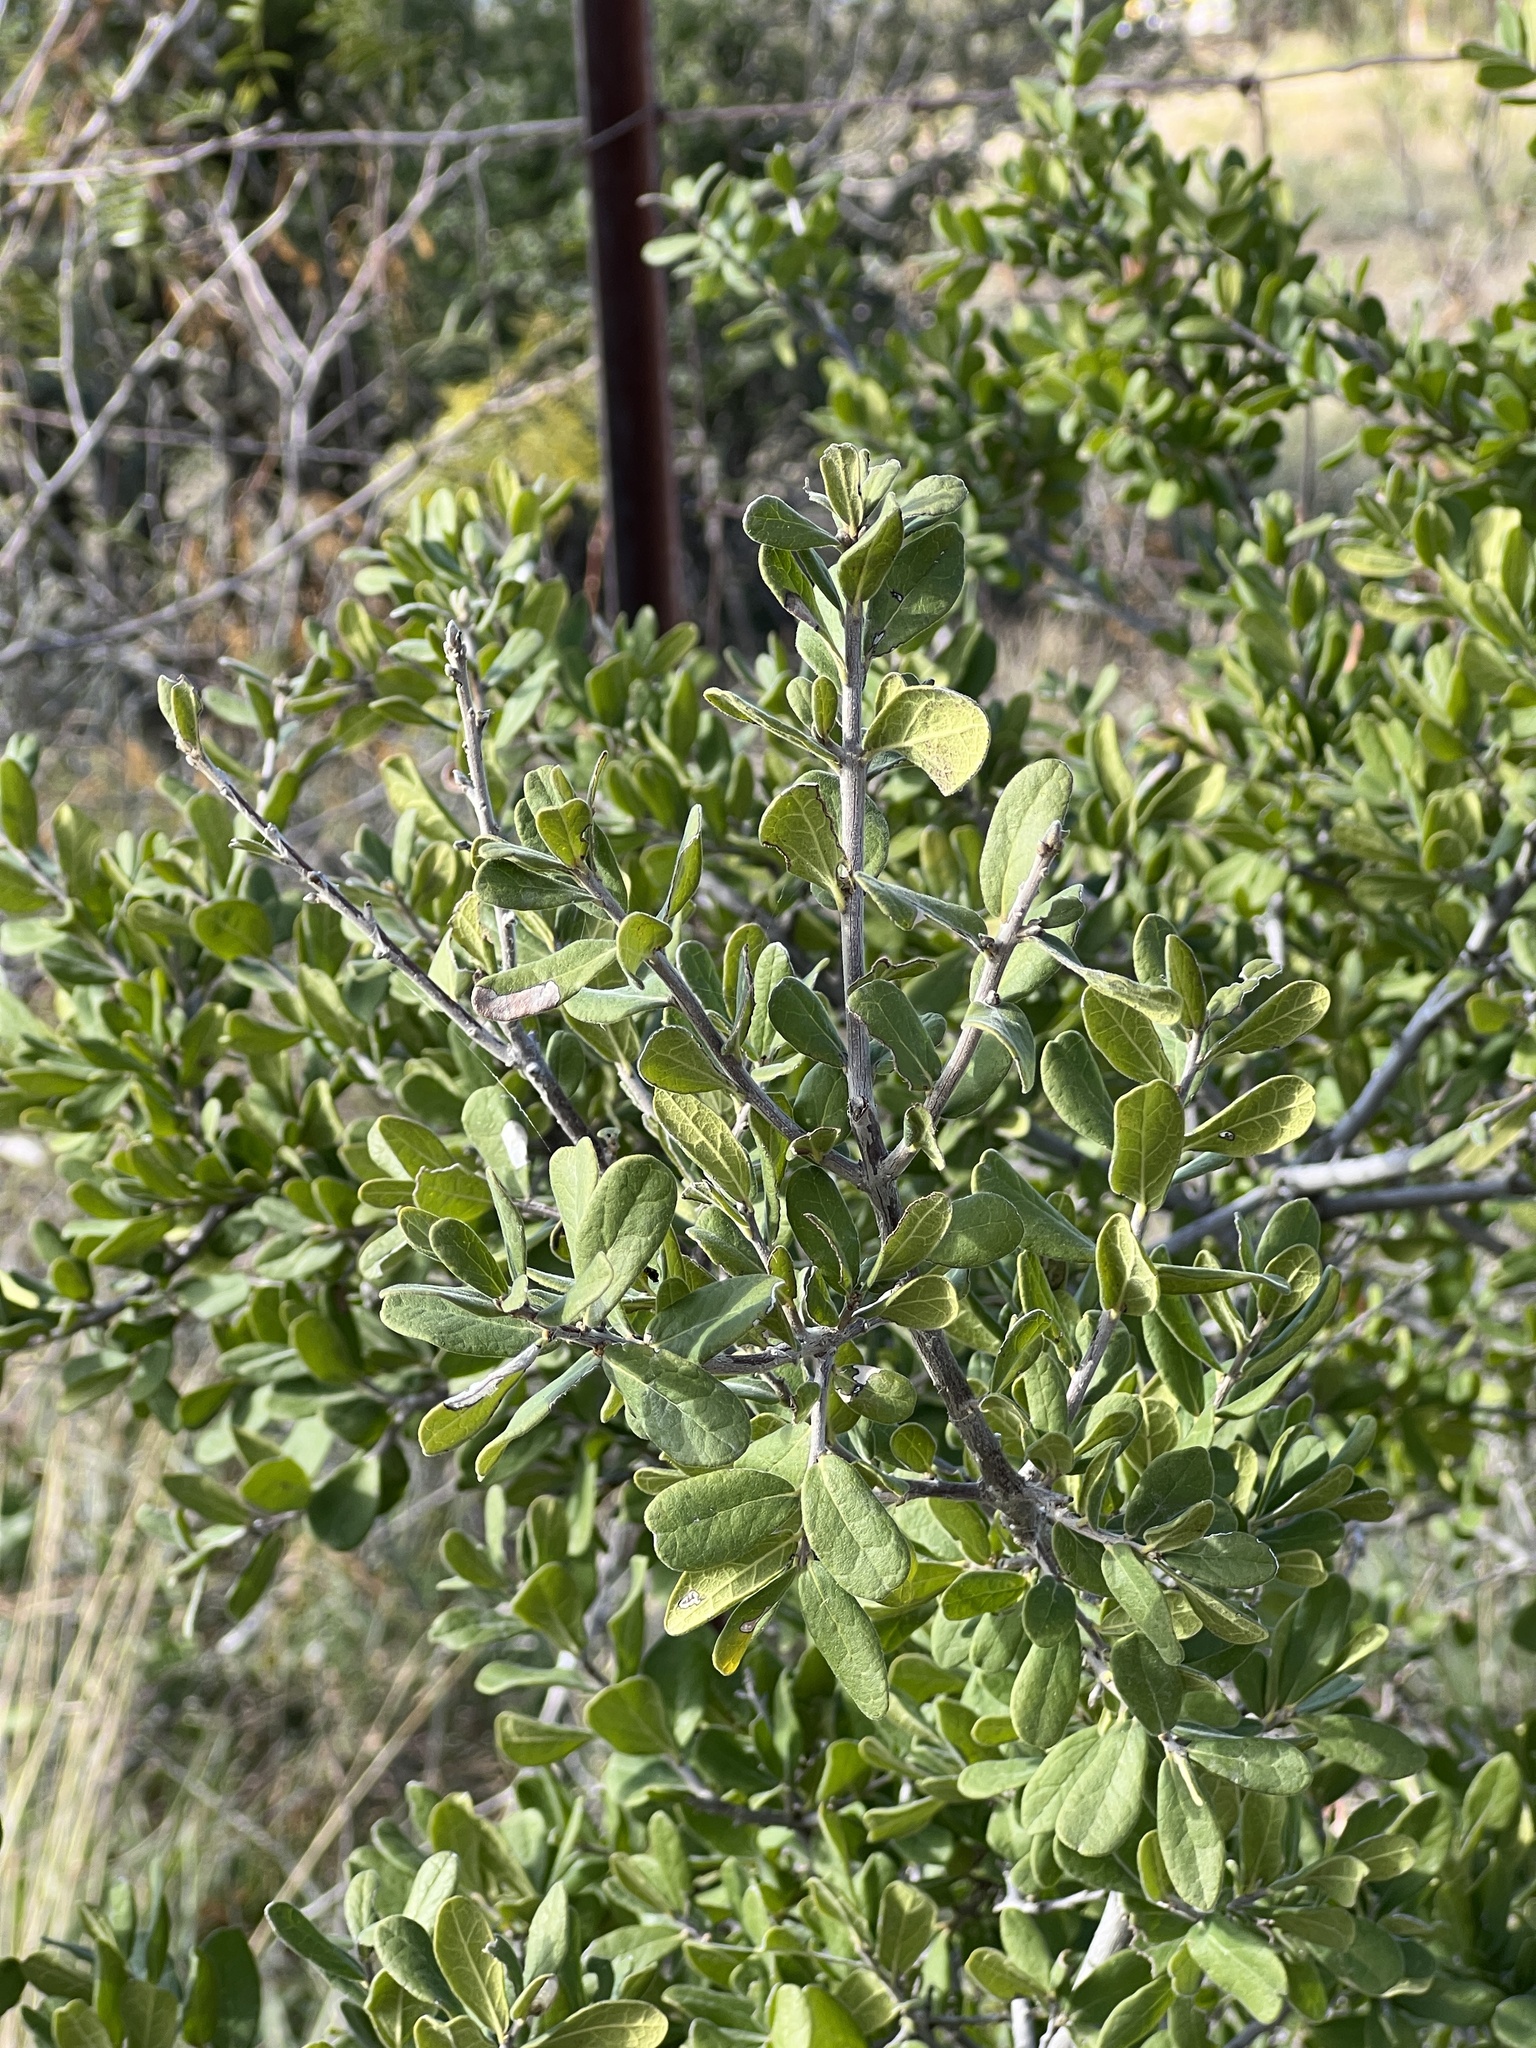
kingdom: Plantae
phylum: Tracheophyta
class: Magnoliopsida
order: Ericales
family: Ebenaceae
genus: Diospyros
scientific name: Diospyros texana
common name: Texas persimmon
